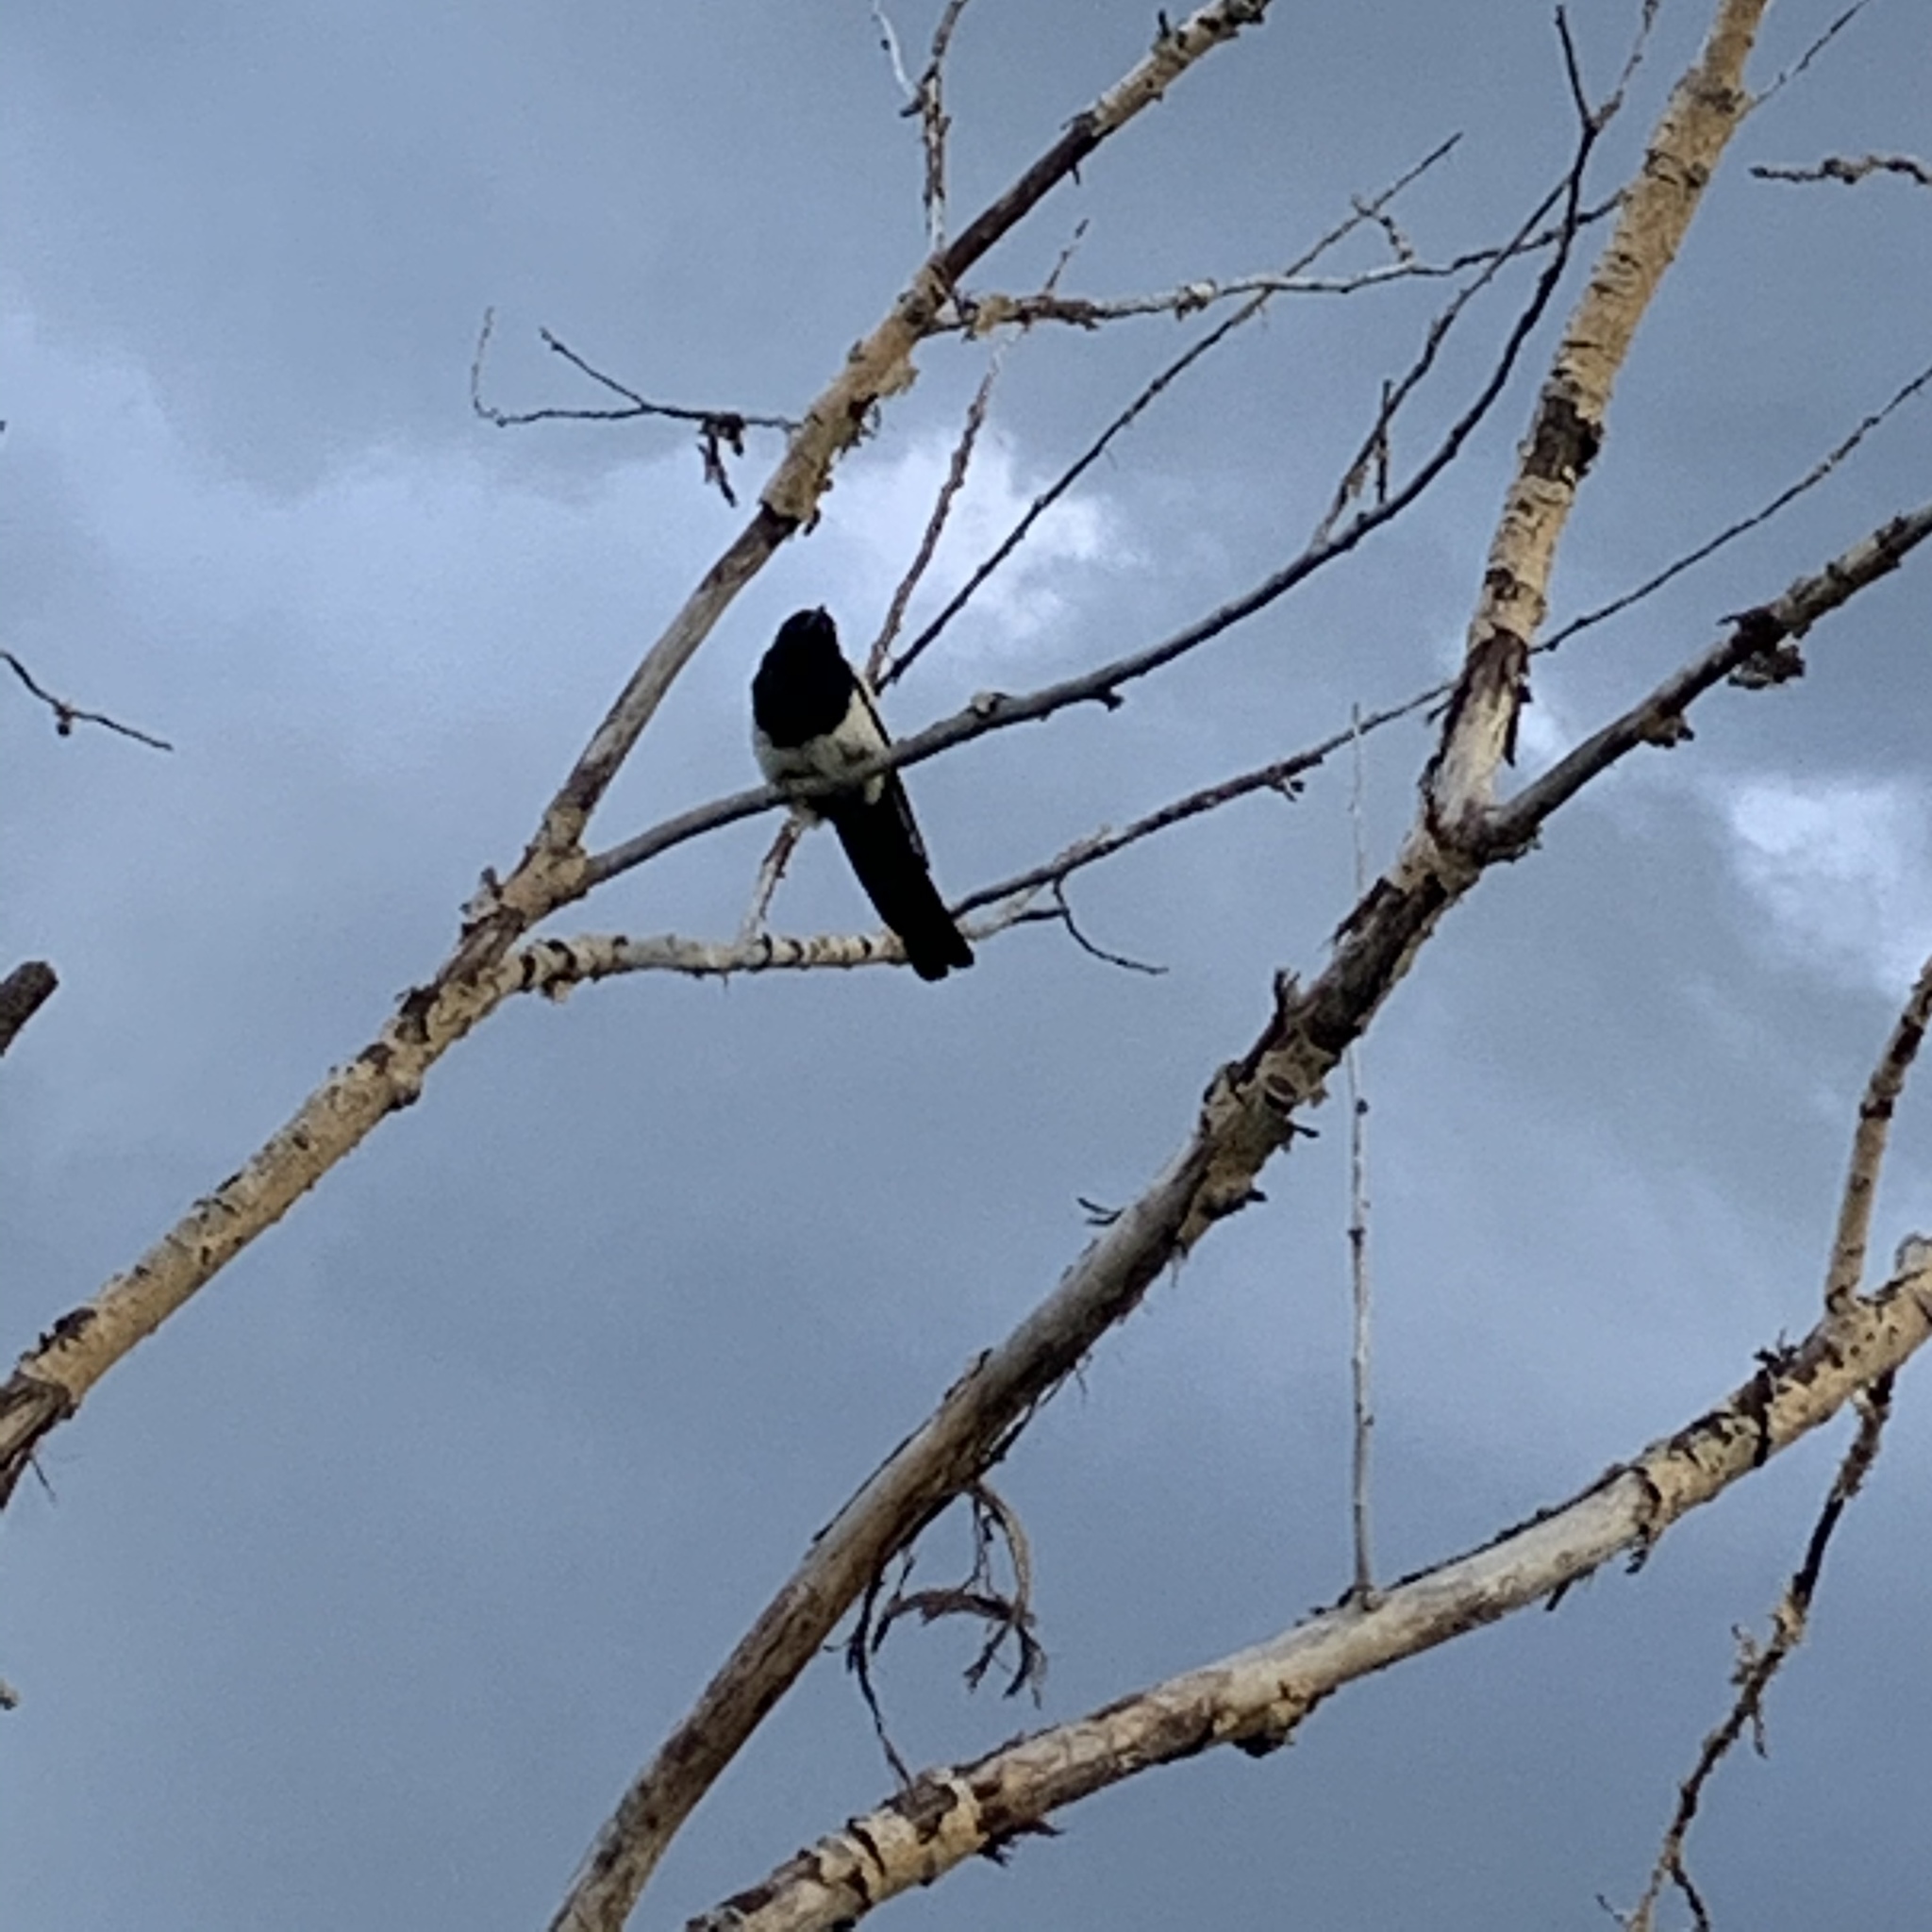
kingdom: Animalia
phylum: Chordata
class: Aves
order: Passeriformes
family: Corvidae
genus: Pica
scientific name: Pica hudsonia
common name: Black-billed magpie
